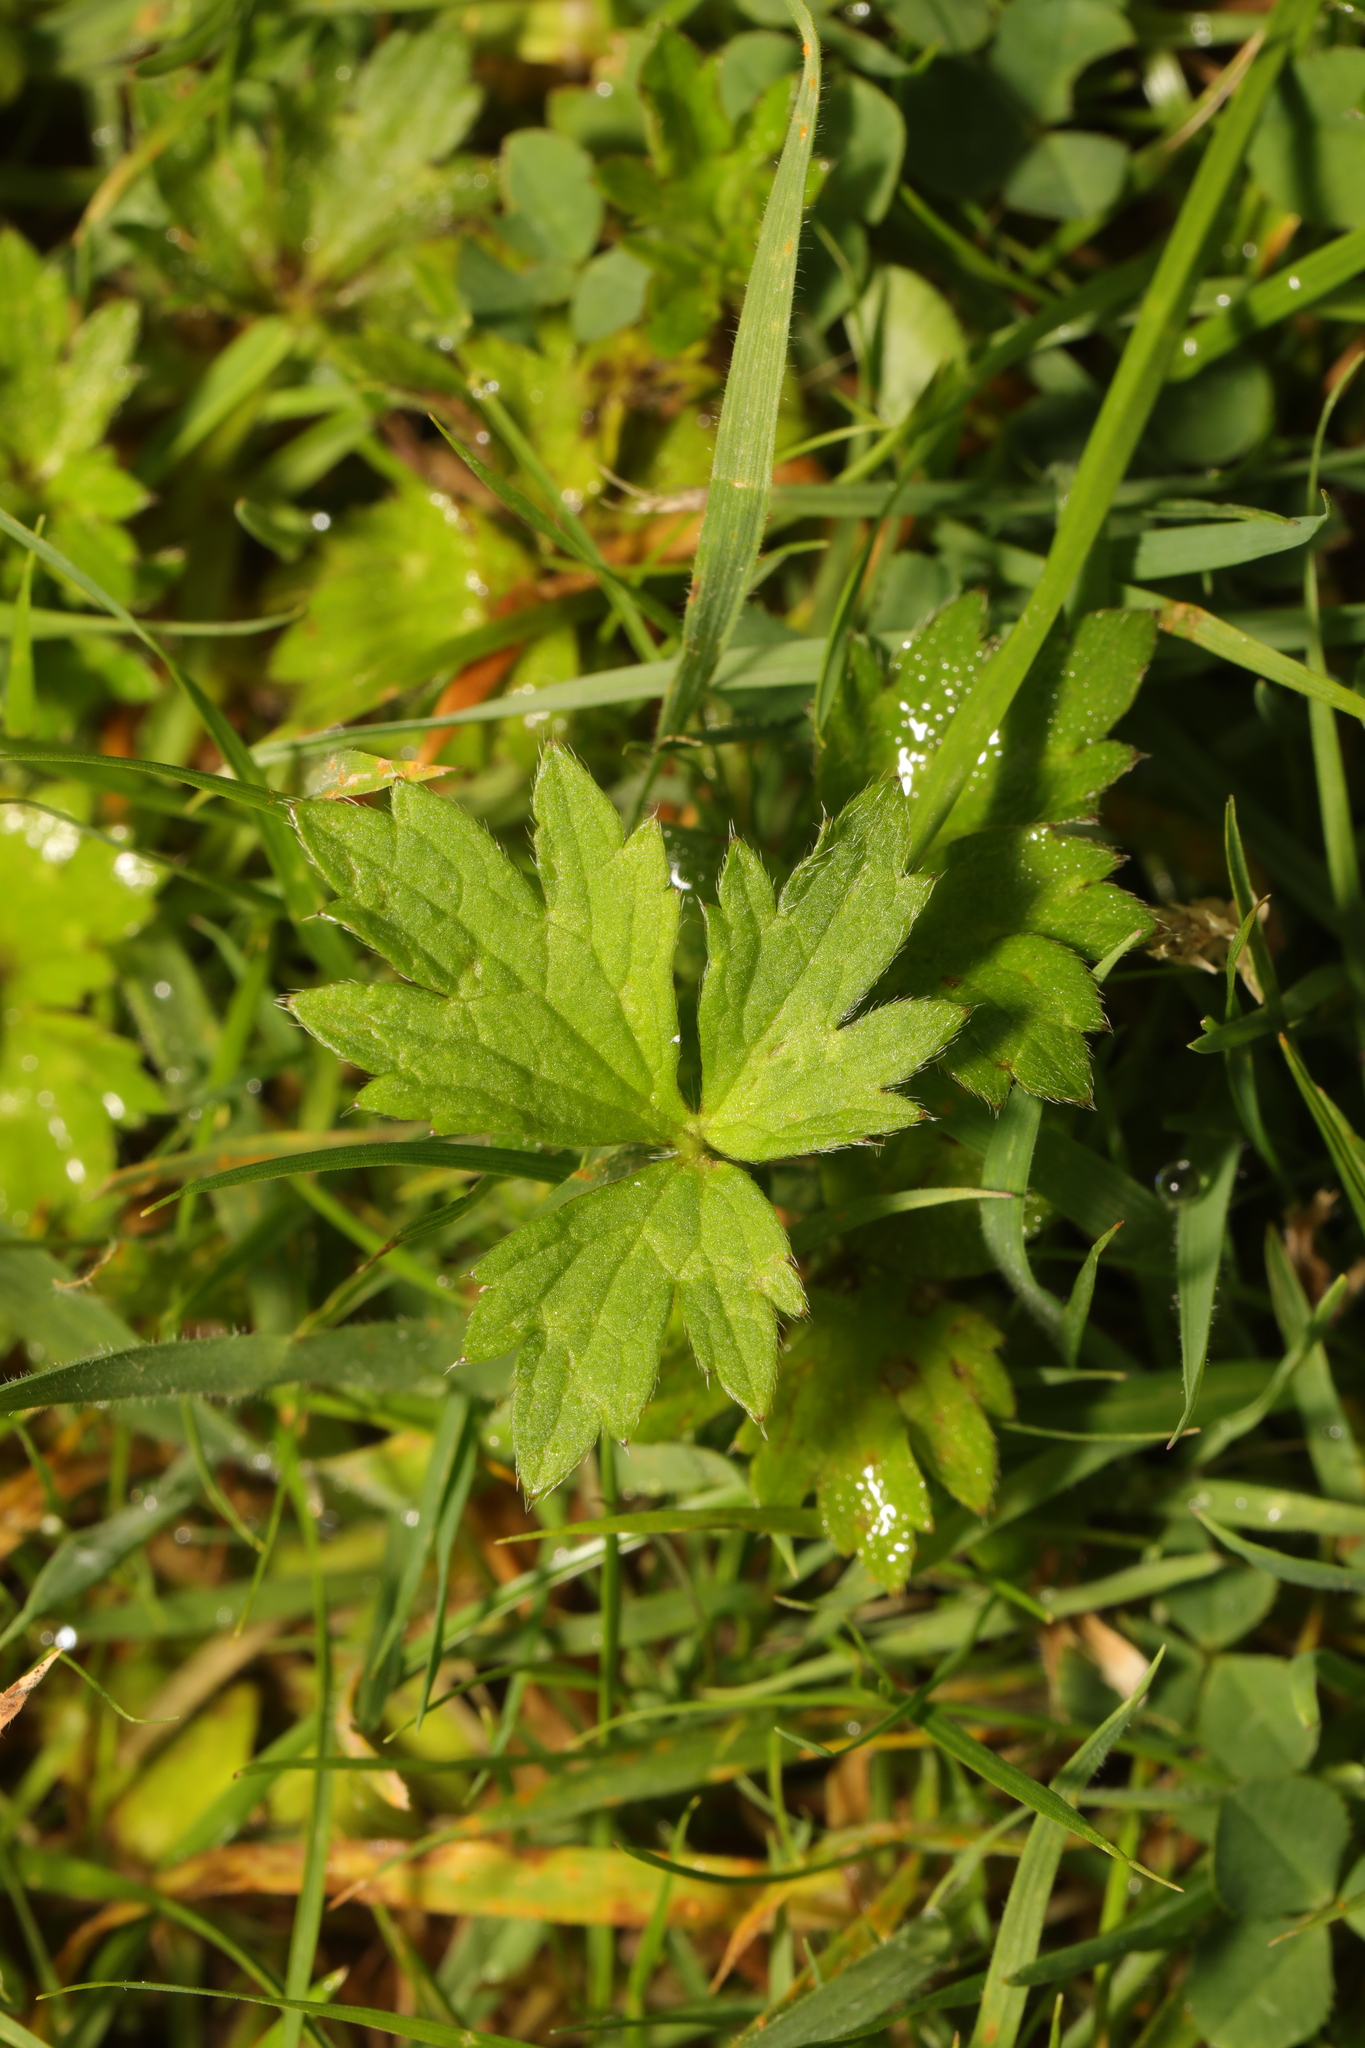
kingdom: Plantae
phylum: Tracheophyta
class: Magnoliopsida
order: Ranunculales
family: Ranunculaceae
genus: Ranunculus
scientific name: Ranunculus repens
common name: Creeping buttercup
